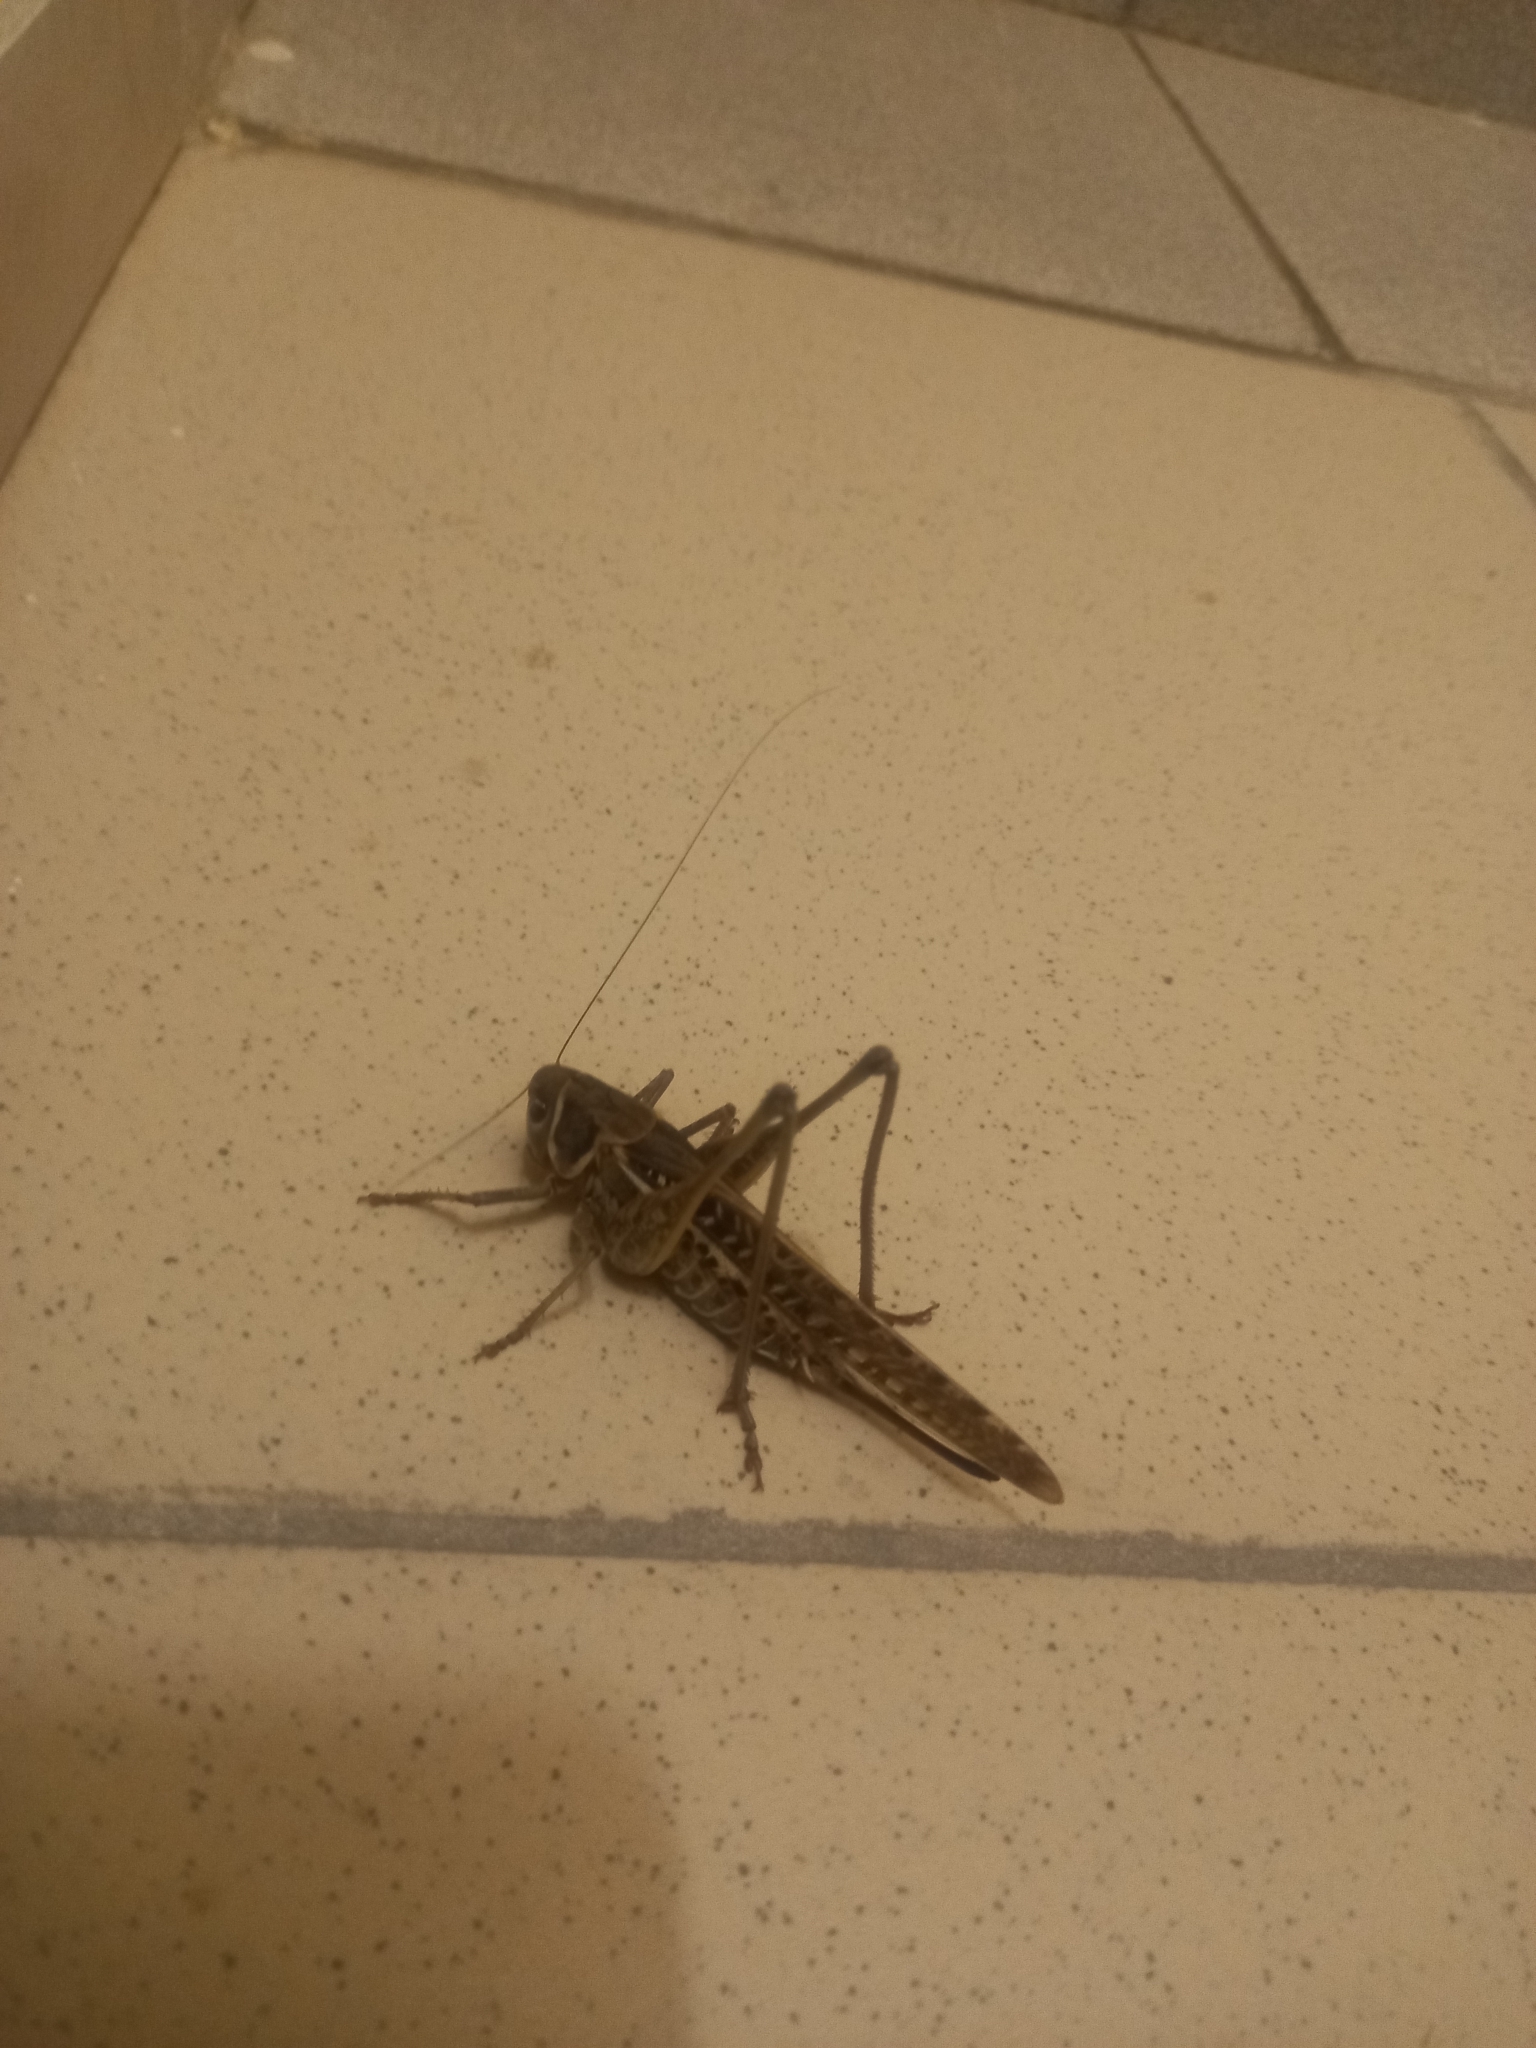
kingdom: Animalia
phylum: Arthropoda
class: Insecta
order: Orthoptera
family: Tettigoniidae
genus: Decticus
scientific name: Decticus albifrons
